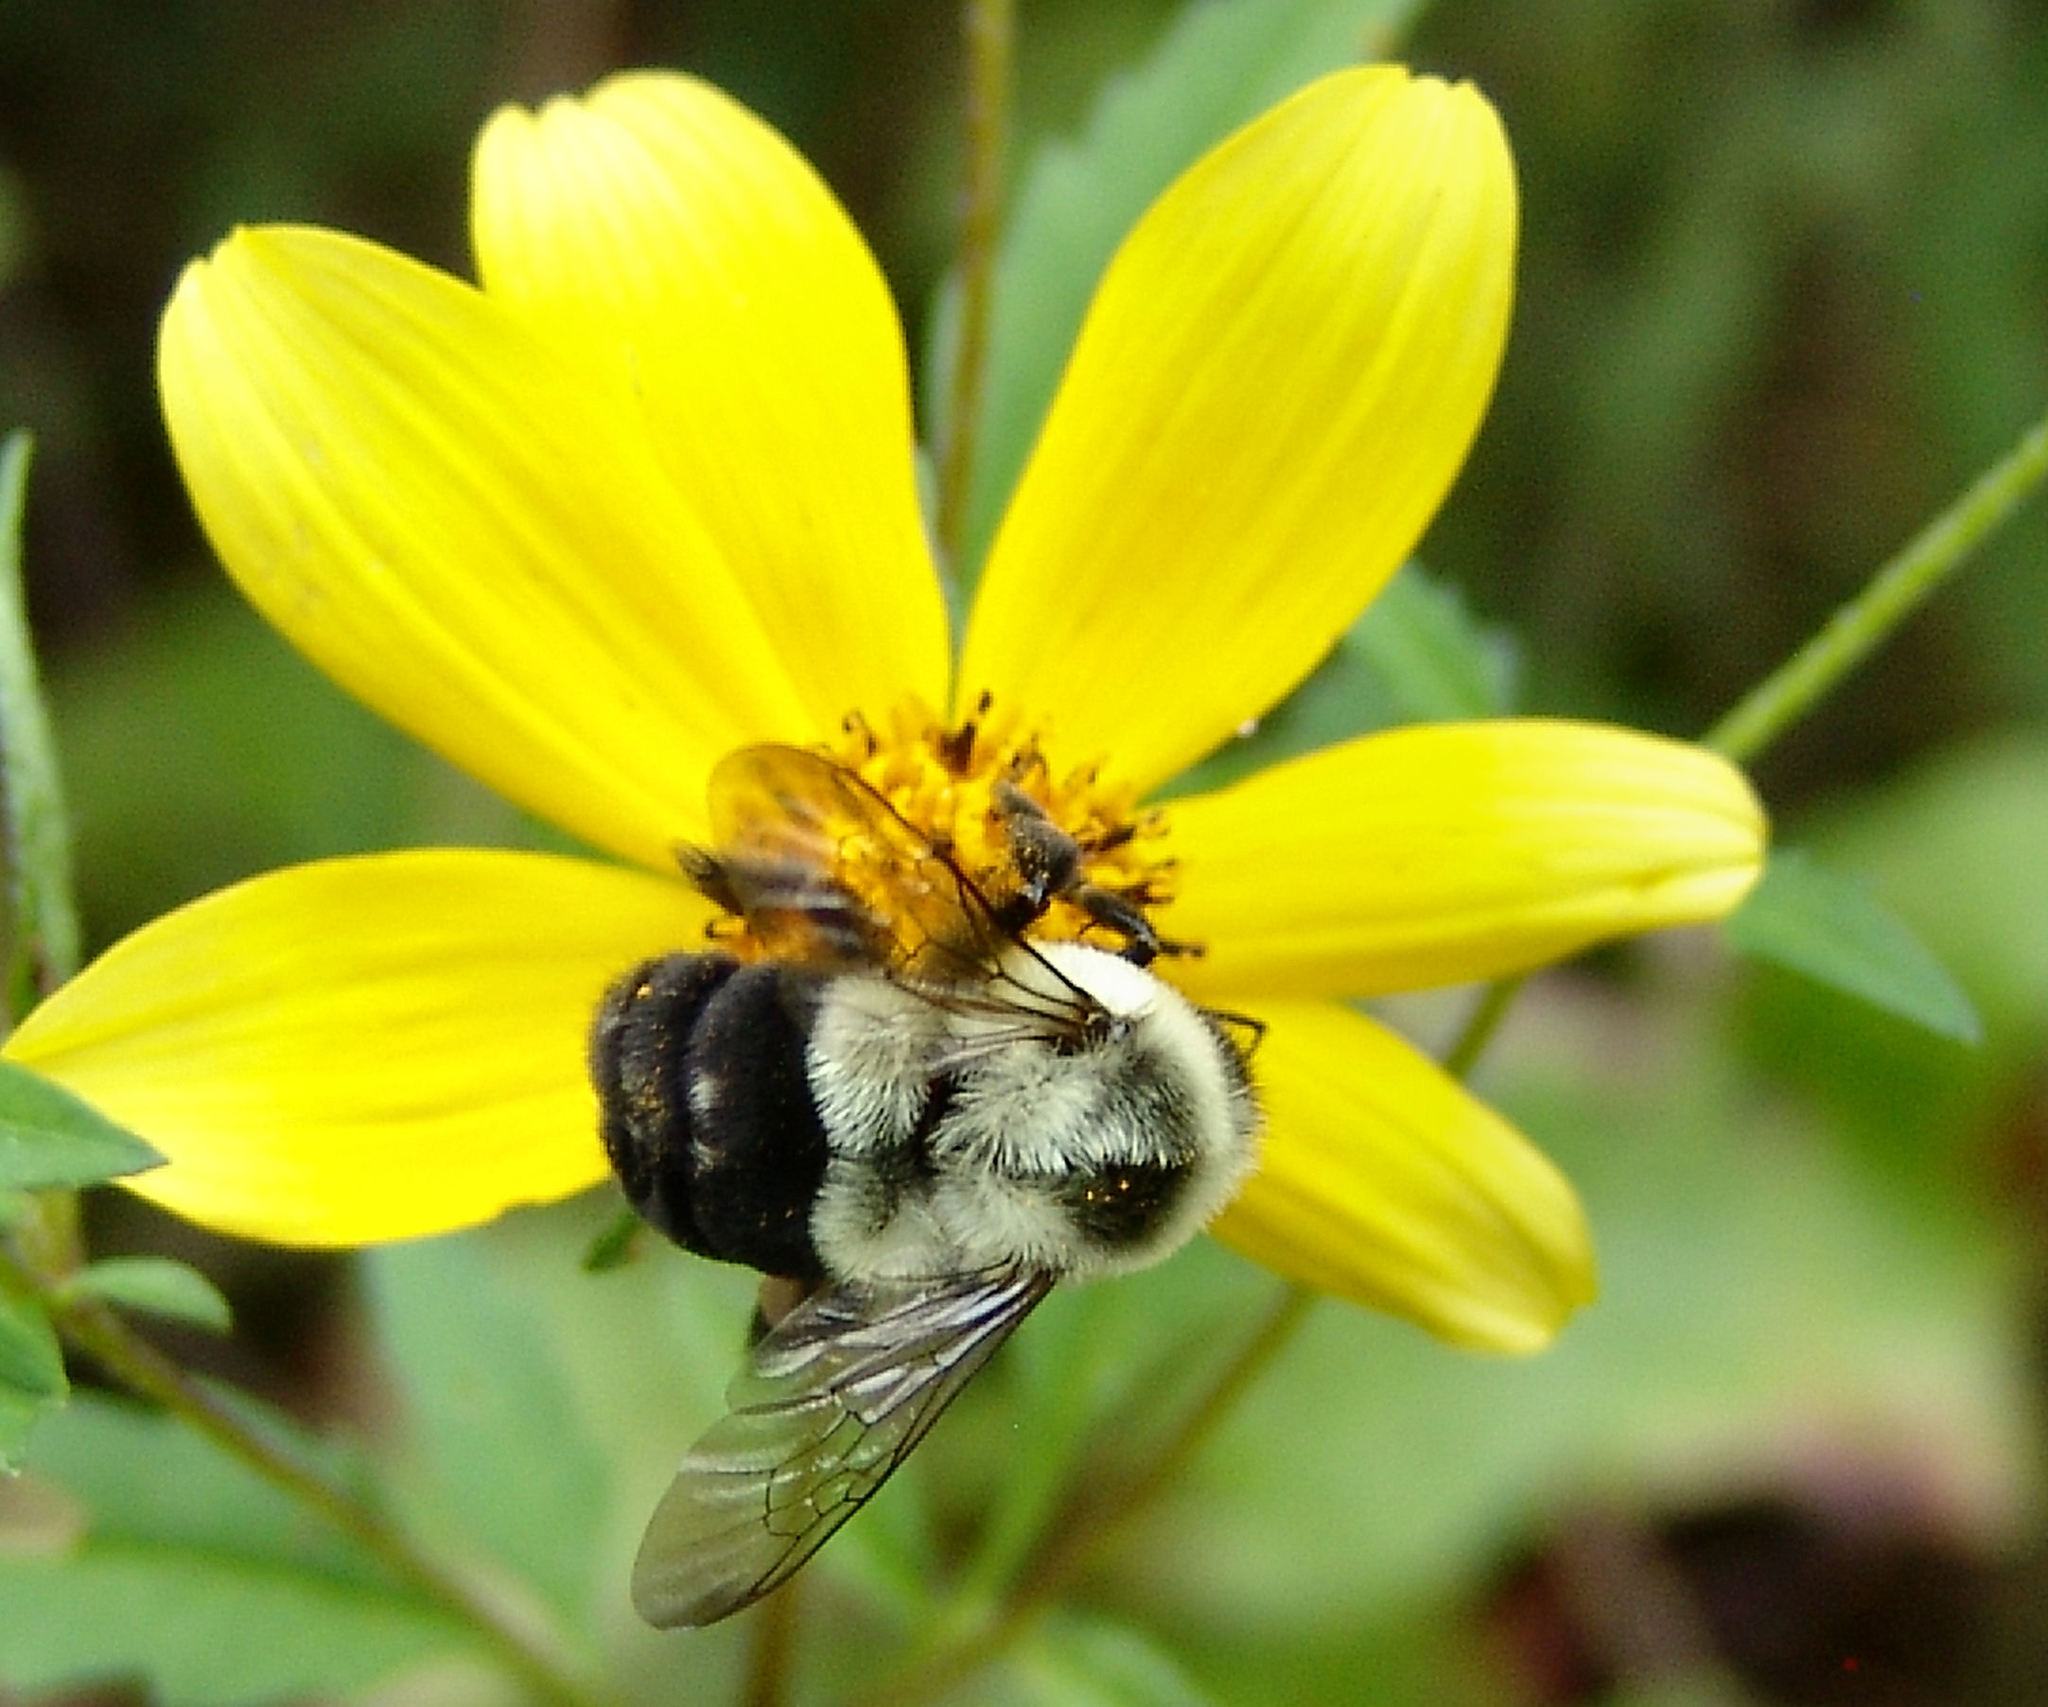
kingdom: Animalia
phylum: Arthropoda
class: Insecta
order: Hymenoptera
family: Apidae
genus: Bombus
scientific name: Bombus impatiens
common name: Common eastern bumble bee
